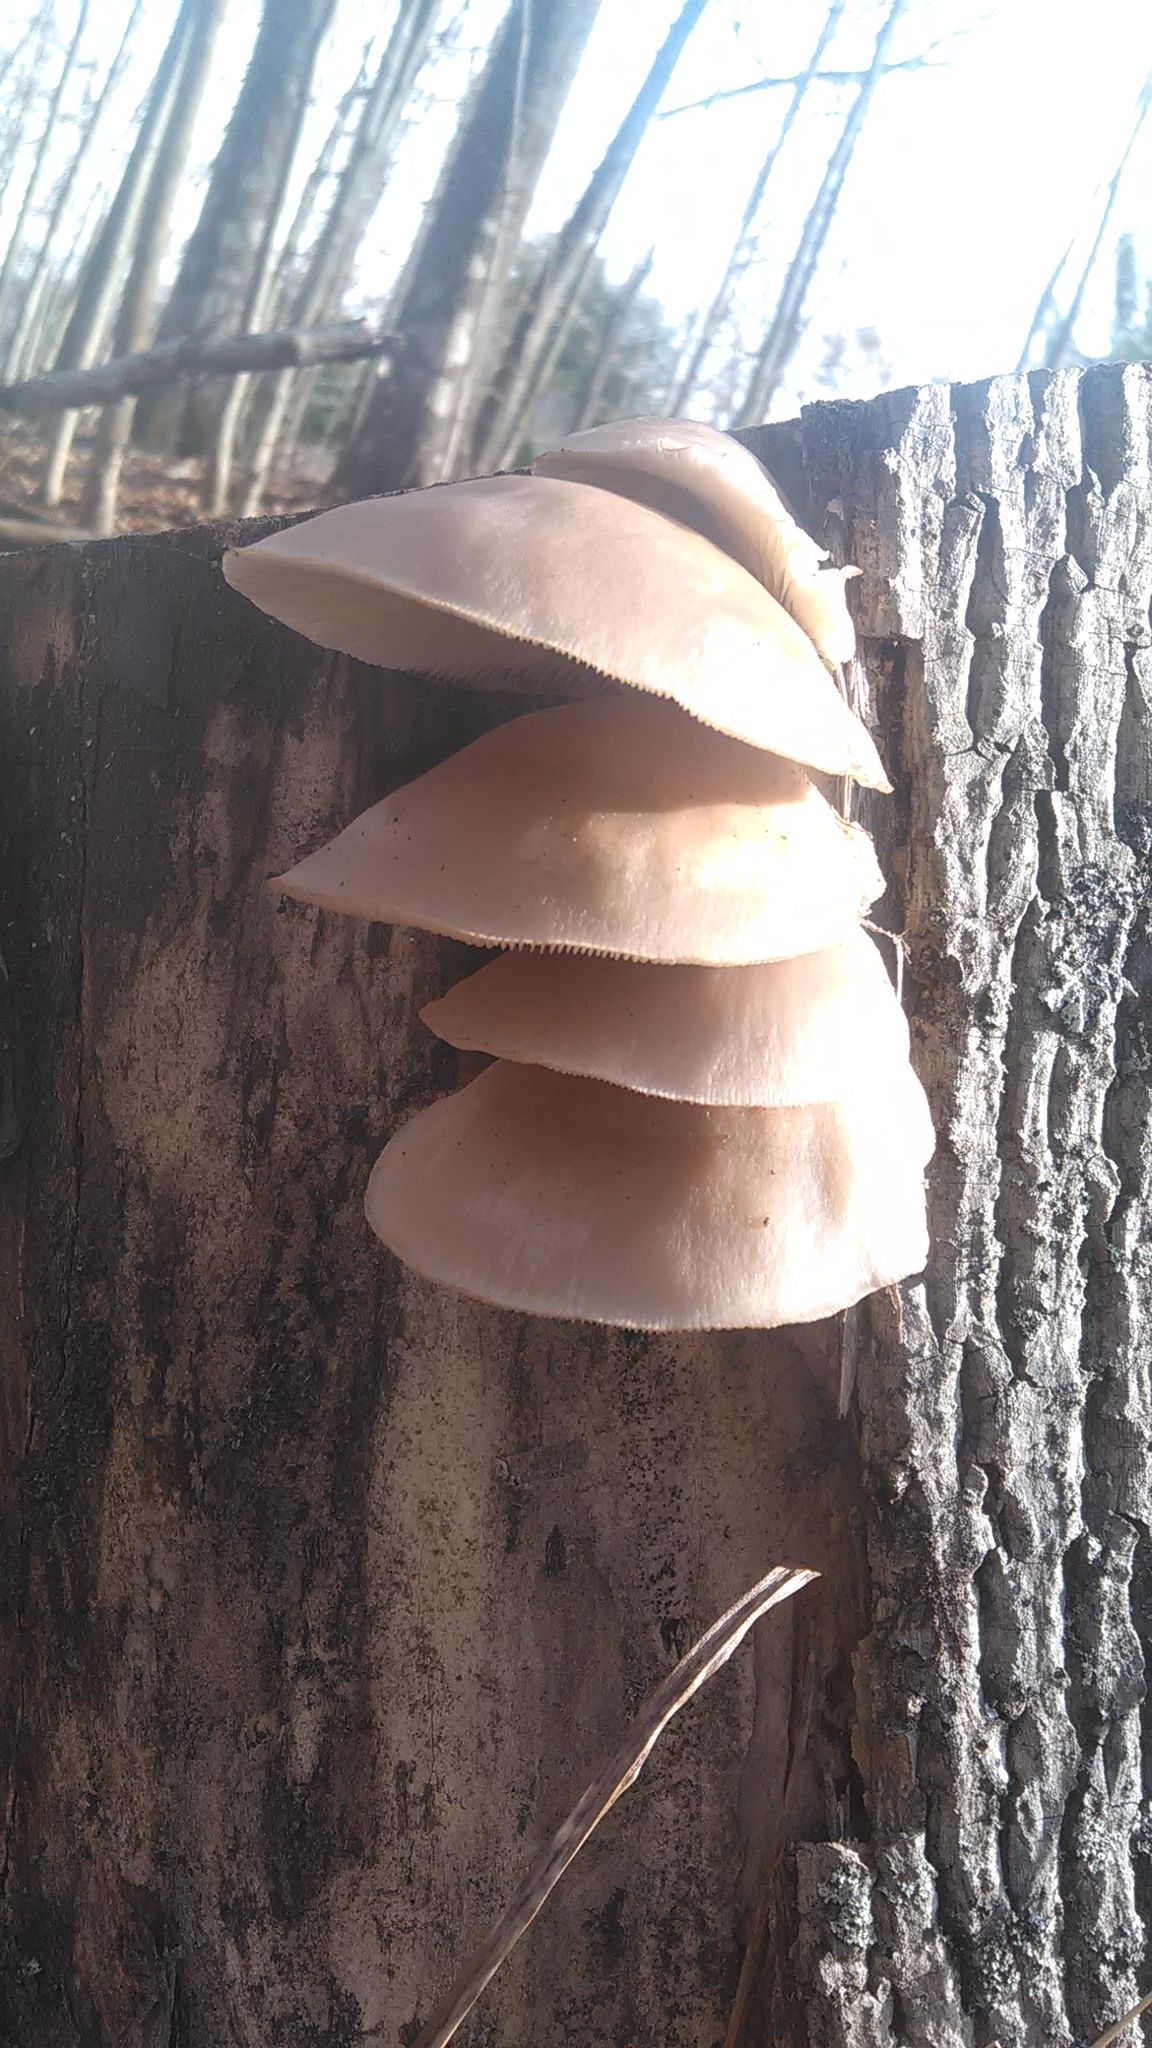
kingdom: Fungi
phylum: Basidiomycota
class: Agaricomycetes
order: Agaricales
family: Pleurotaceae
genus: Pleurotus
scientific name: Pleurotus populinus
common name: Aspen oyster mushroom
